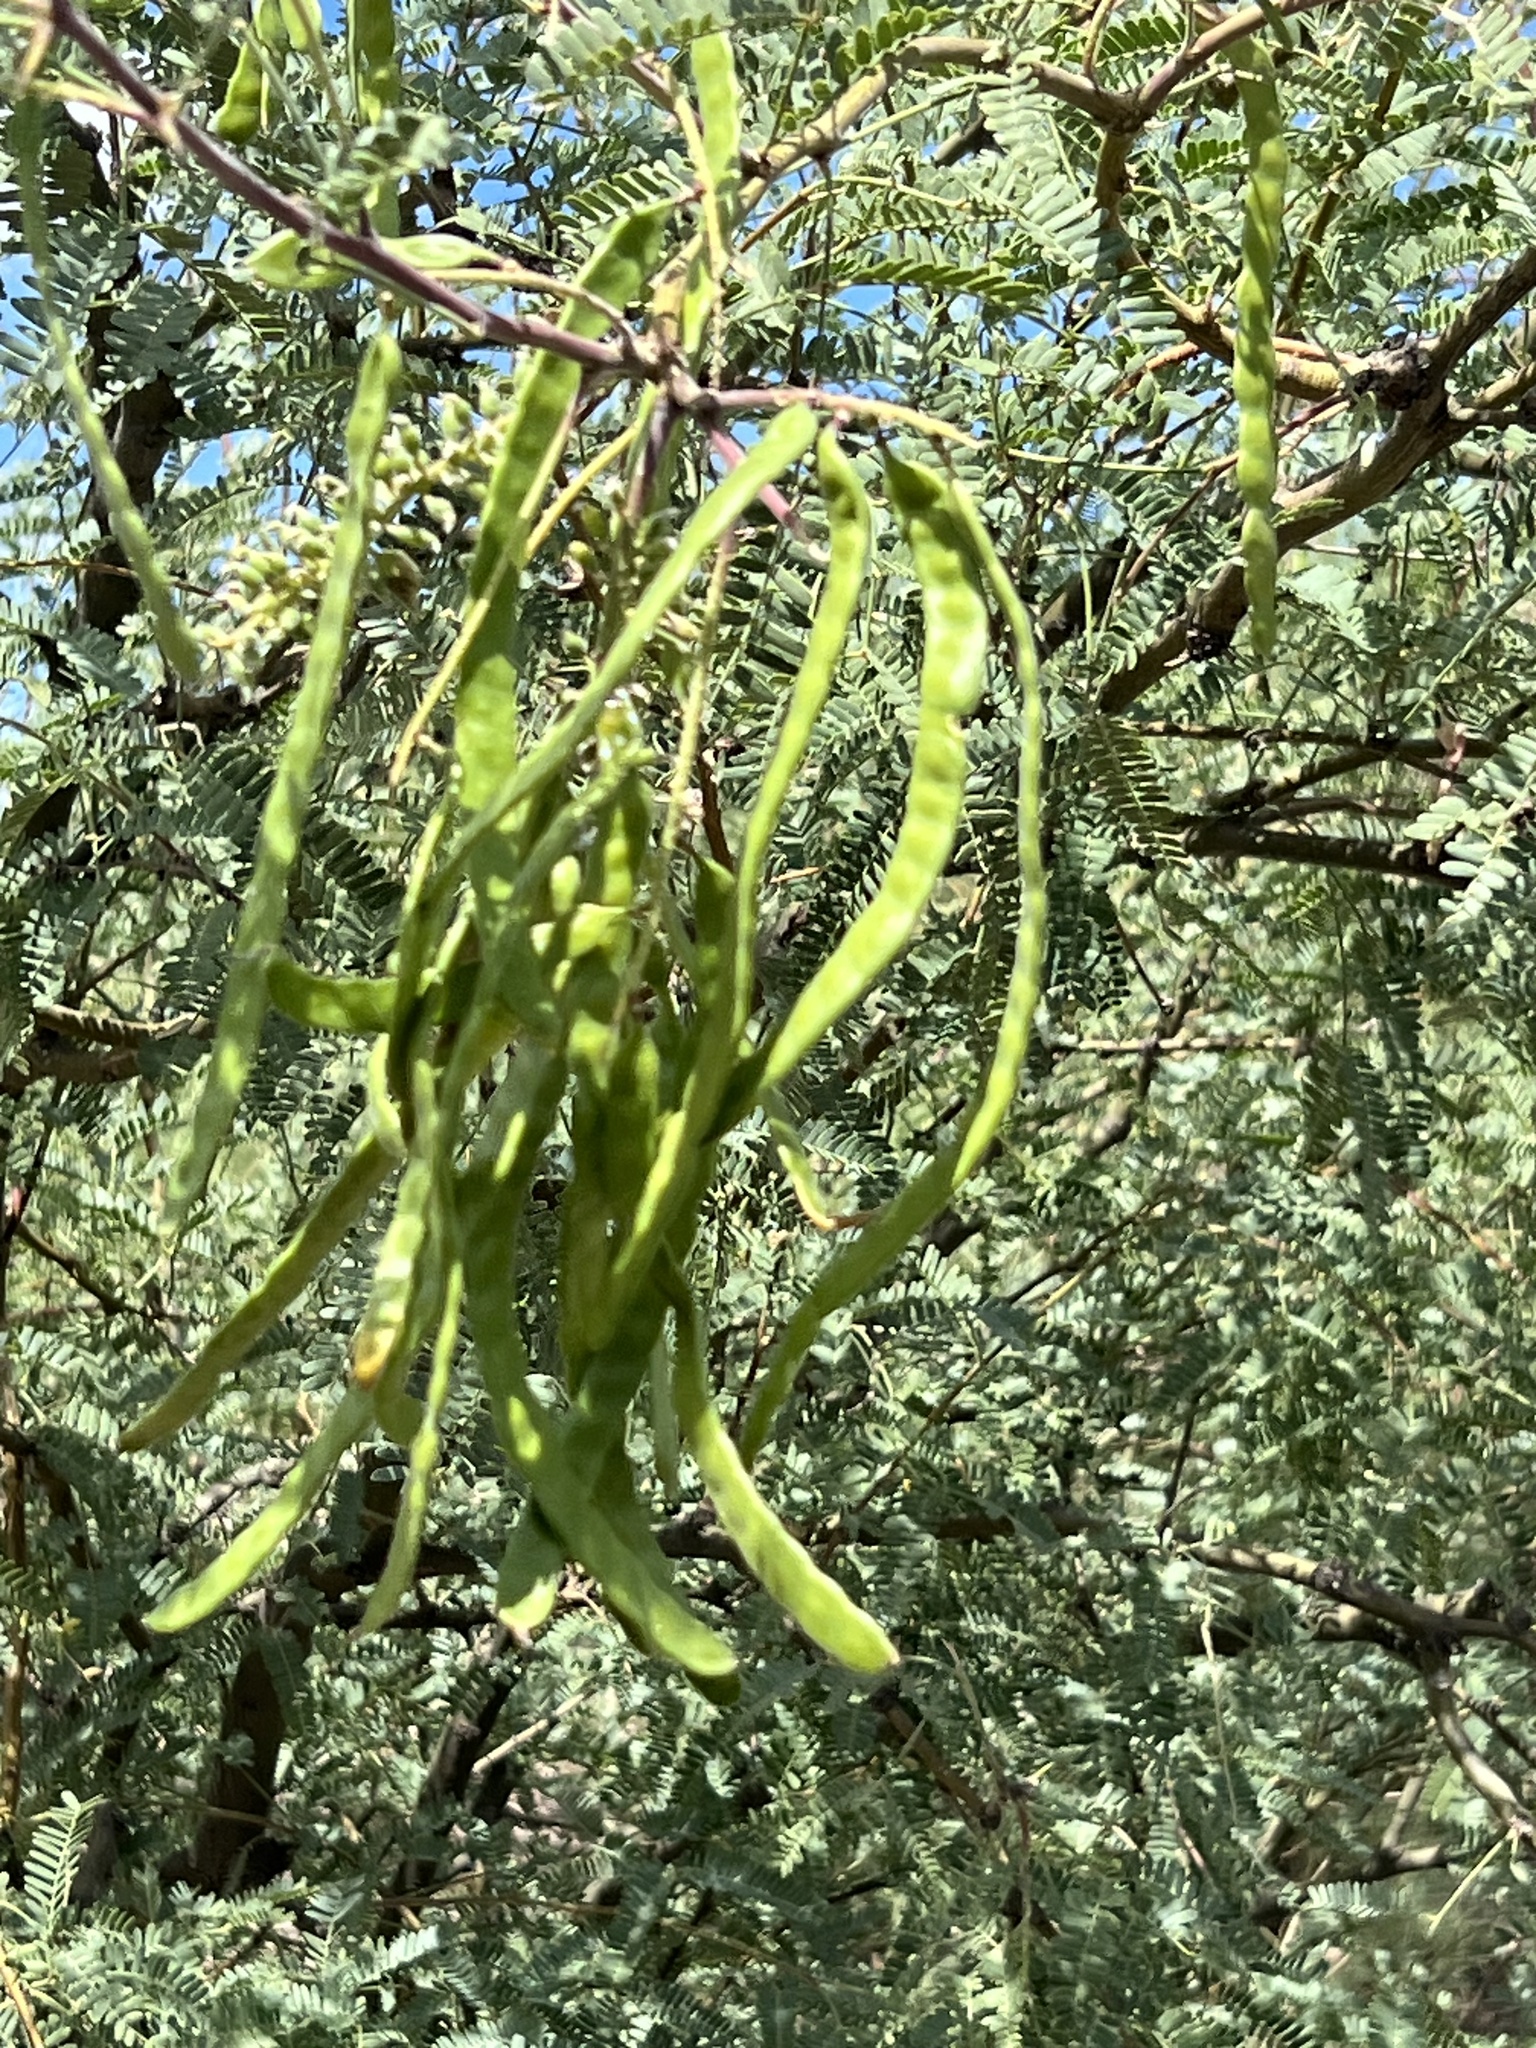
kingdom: Plantae
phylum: Tracheophyta
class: Magnoliopsida
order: Fabales
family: Fabaceae
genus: Prosopis
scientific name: Prosopis velutina
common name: Velvet mesquite
